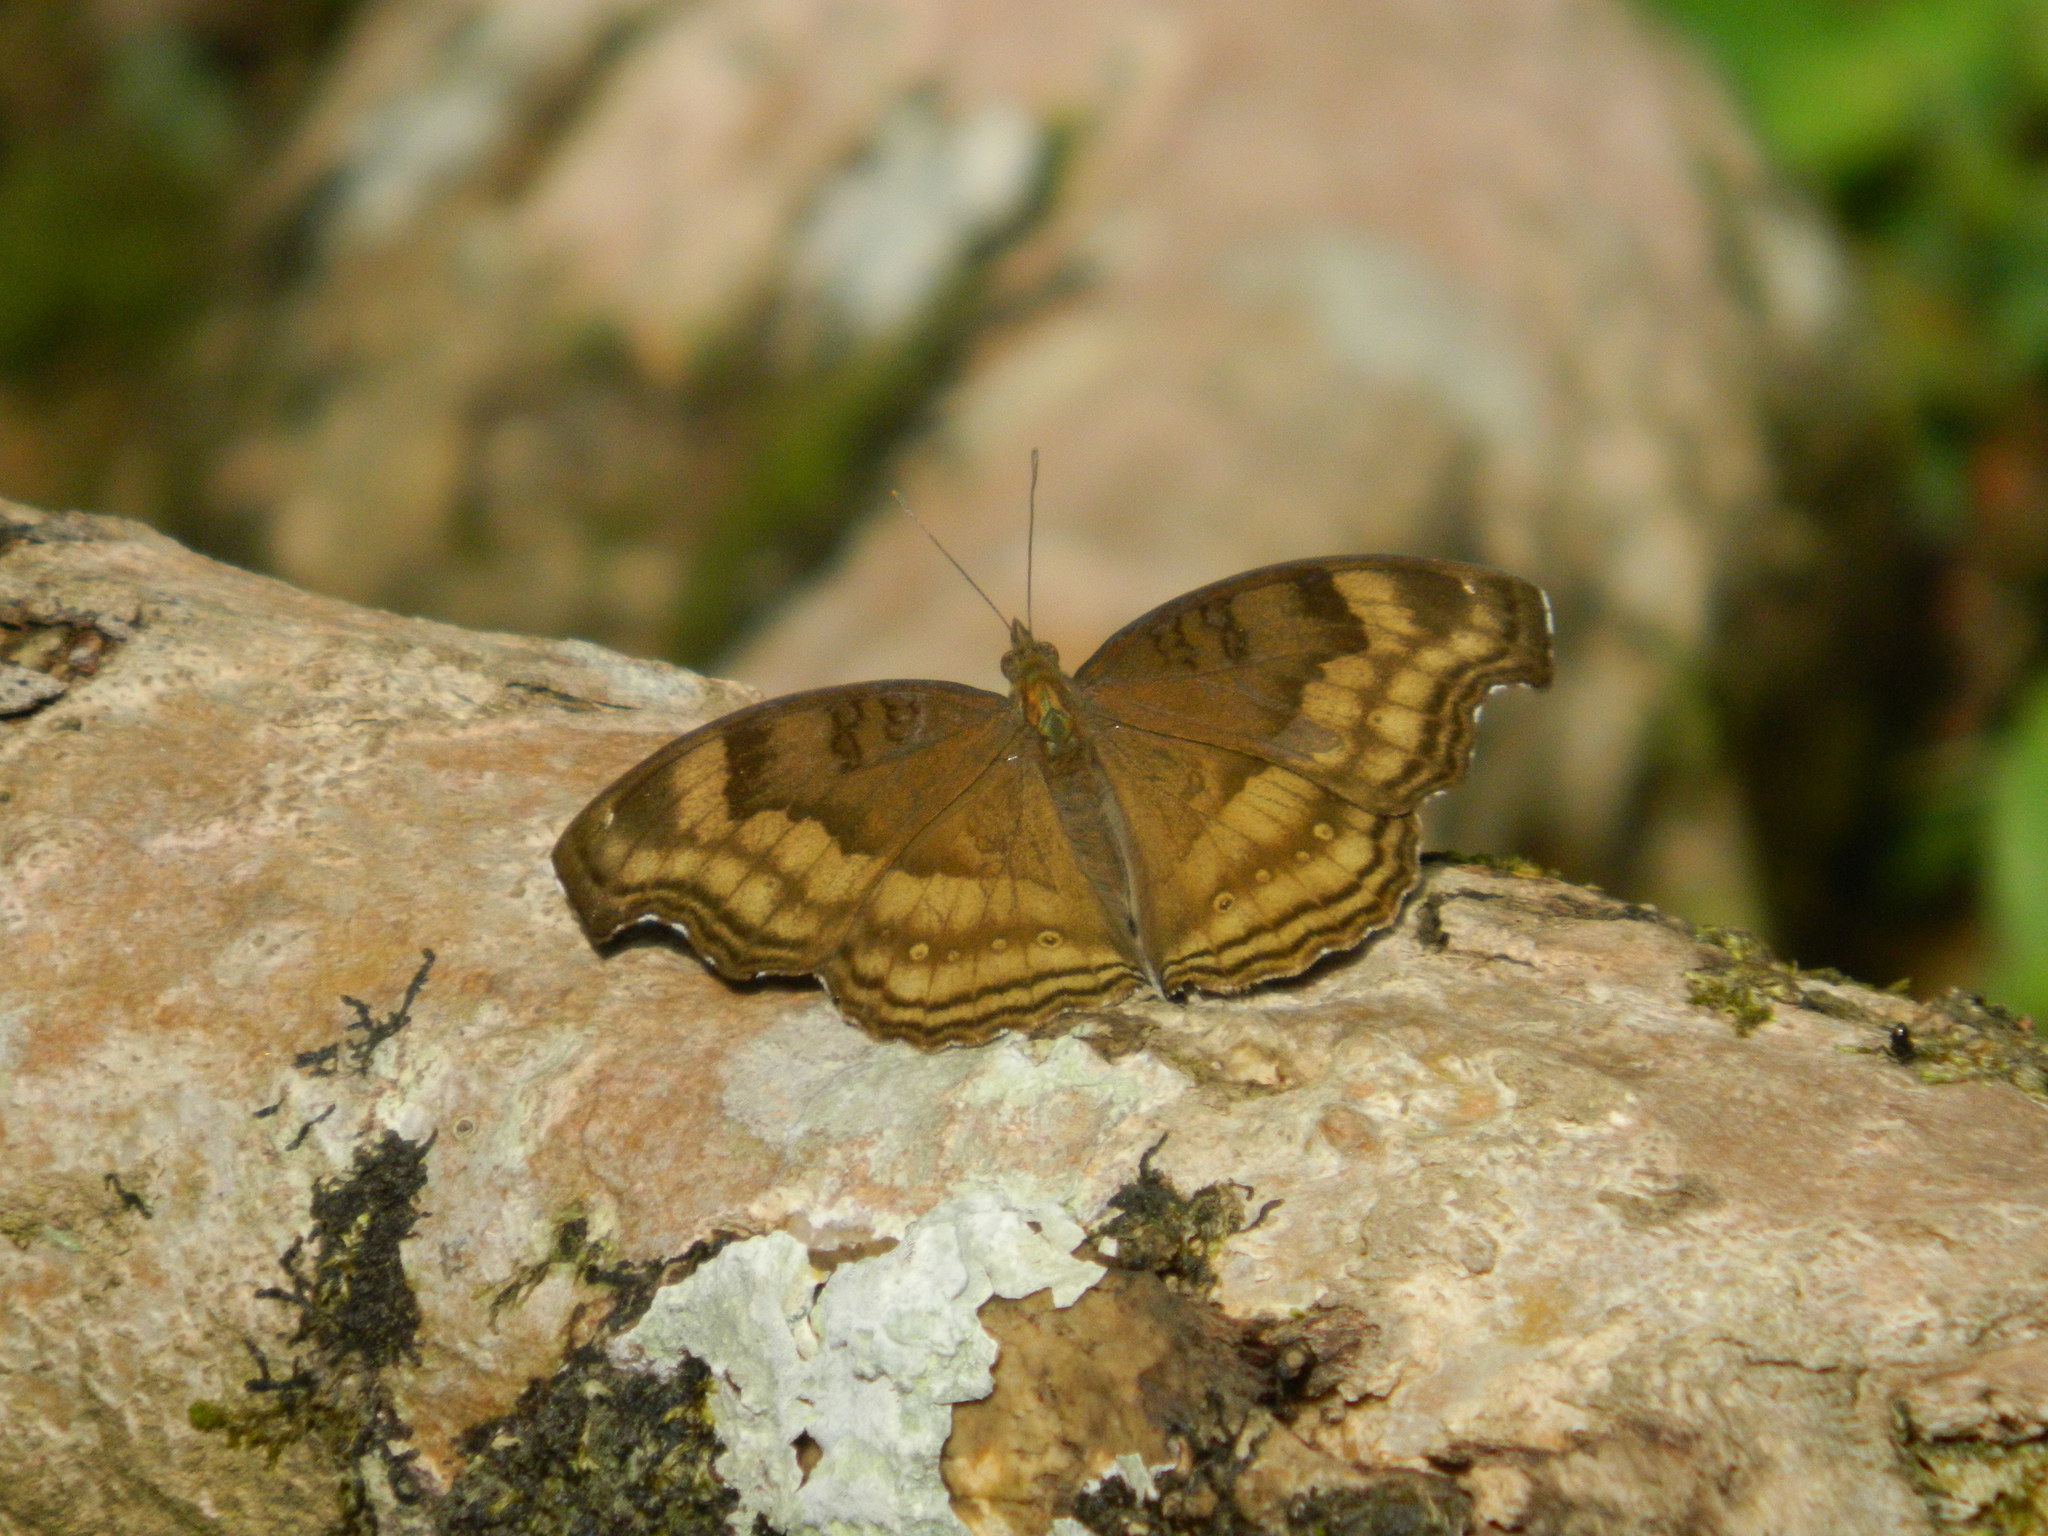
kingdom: Animalia
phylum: Arthropoda
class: Insecta
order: Lepidoptera
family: Nymphalidae
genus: Junonia
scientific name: Junonia iphita
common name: Chocolate pansy
